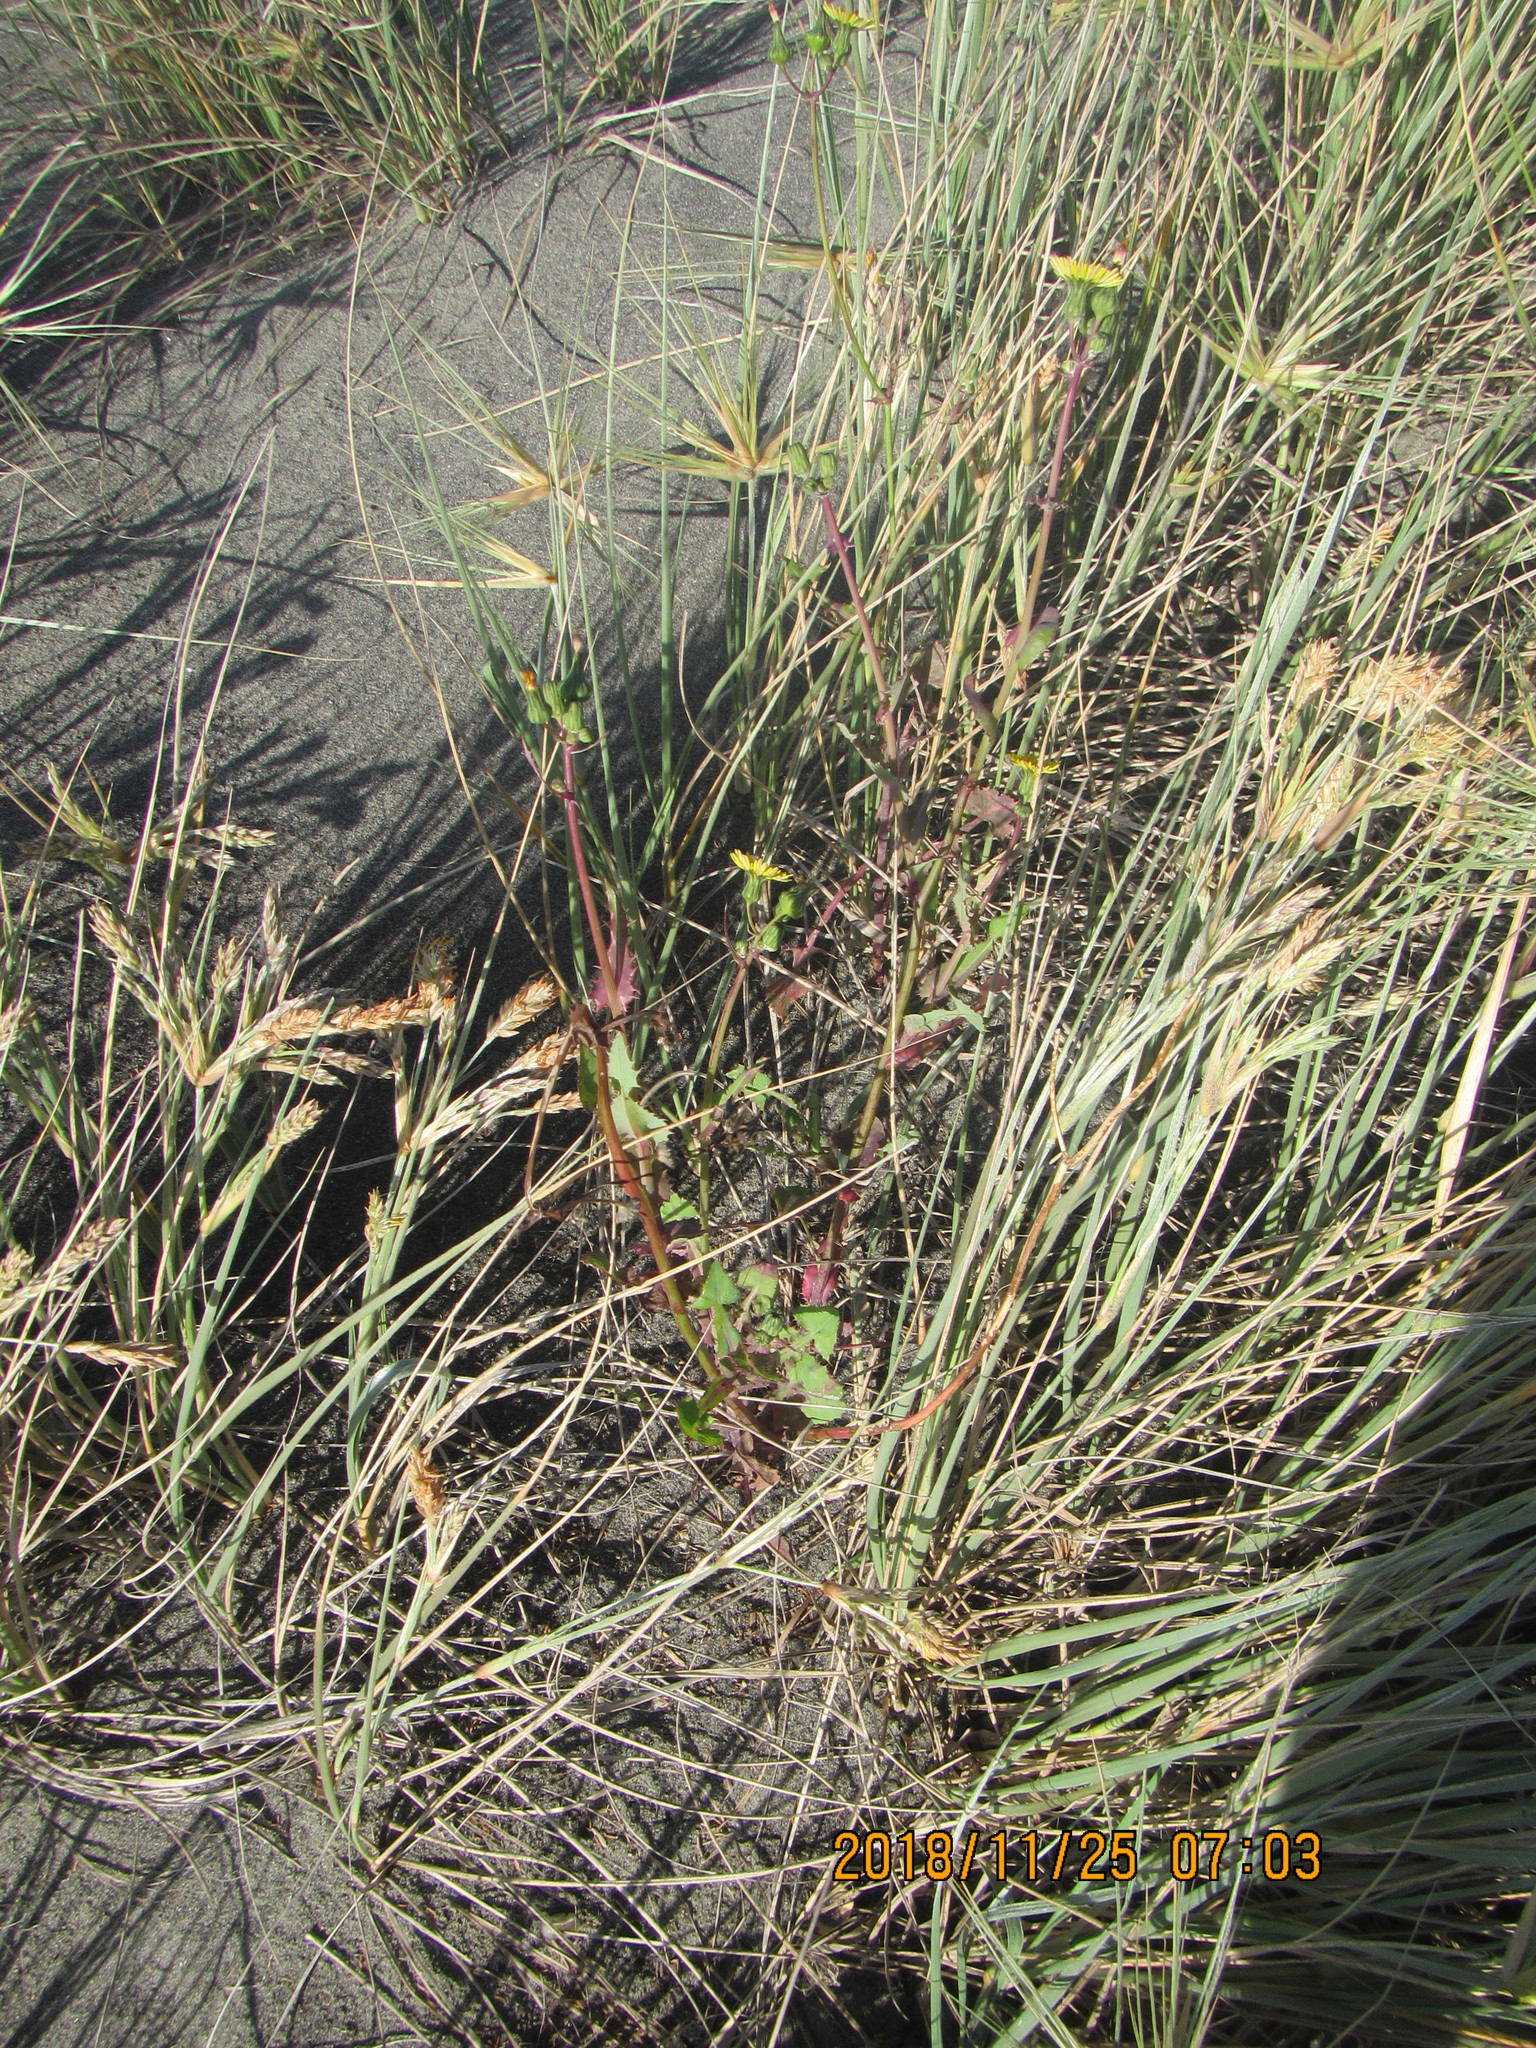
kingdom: Plantae
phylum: Tracheophyta
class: Magnoliopsida
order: Asterales
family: Asteraceae
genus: Sonchus
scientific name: Sonchus oleraceus
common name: Common sowthistle
